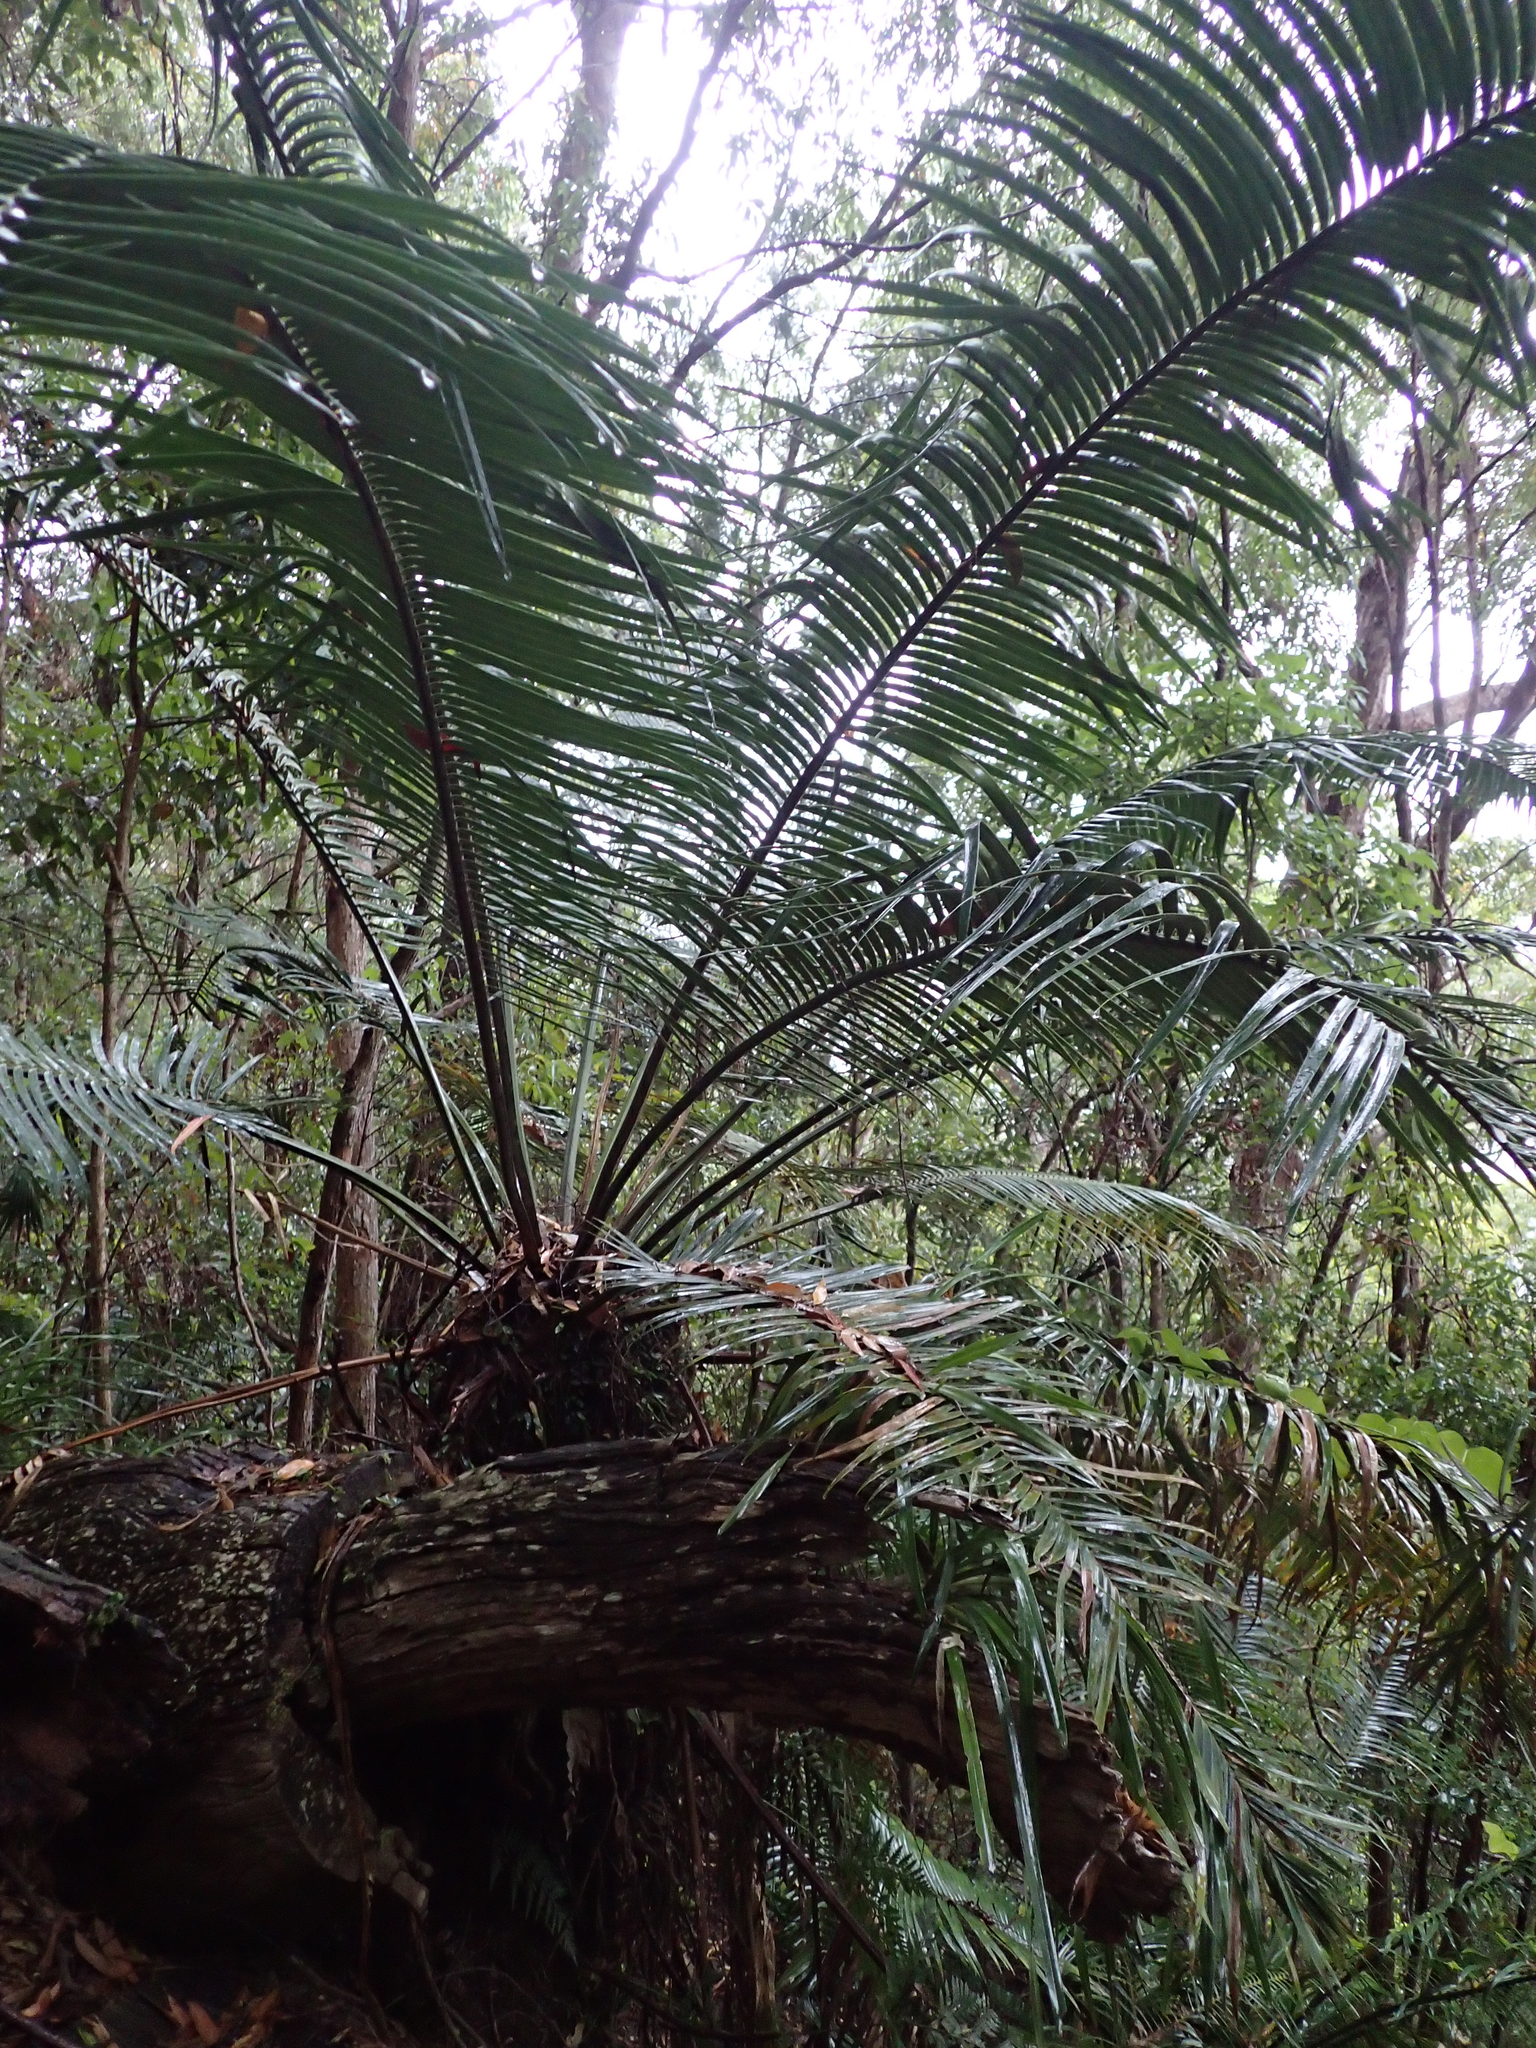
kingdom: Plantae
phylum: Tracheophyta
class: Cycadopsida
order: Cycadales
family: Zamiaceae
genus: Lepidozamia
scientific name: Lepidozamia peroffskyana
